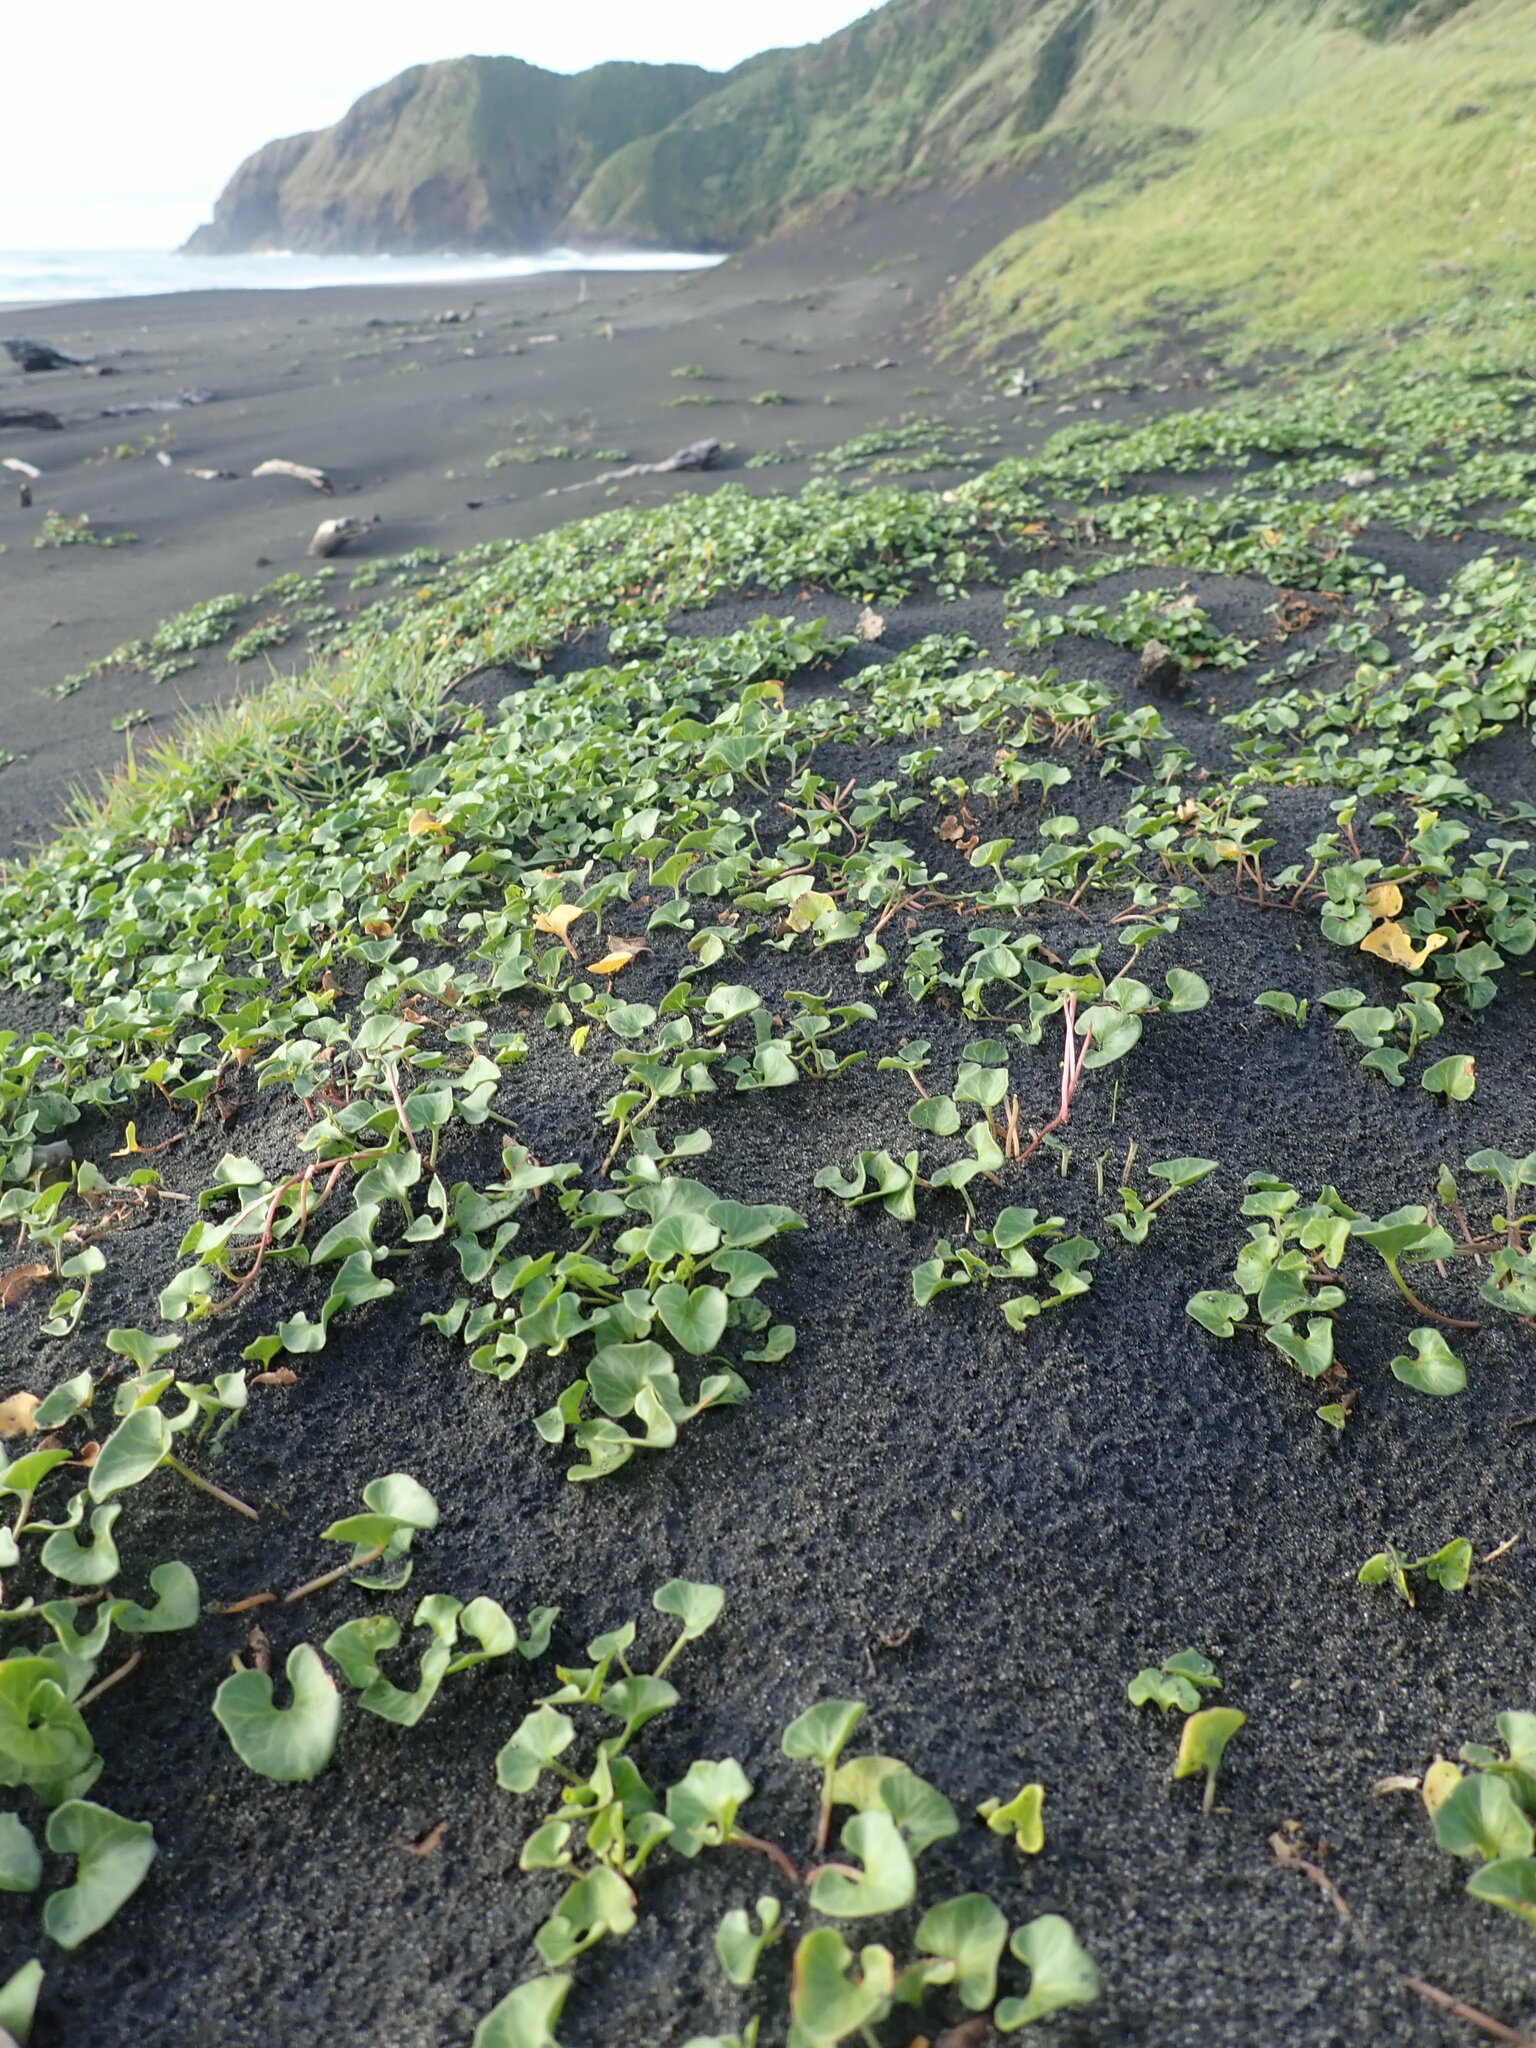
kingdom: Plantae
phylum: Tracheophyta
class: Magnoliopsida
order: Solanales
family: Convolvulaceae
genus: Calystegia
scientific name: Calystegia soldanella
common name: Sea bindweed
